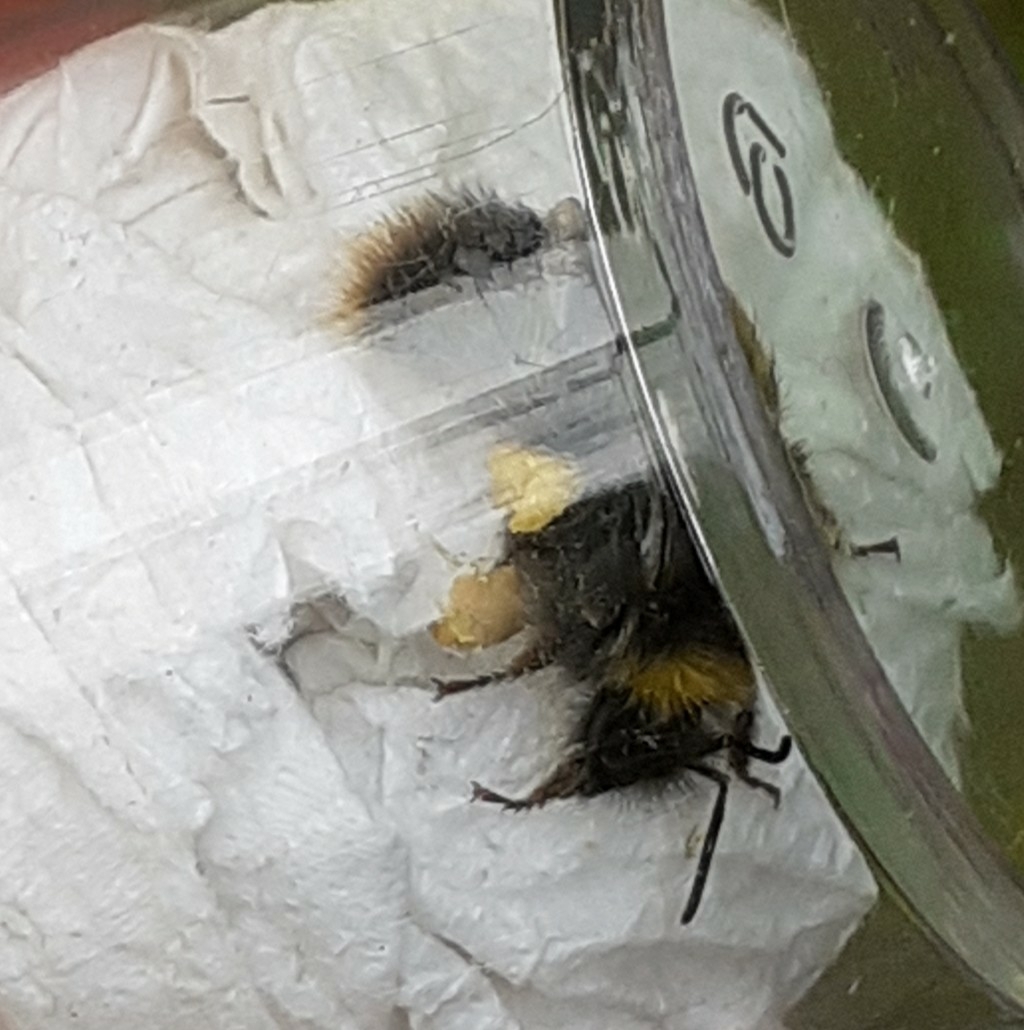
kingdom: Animalia
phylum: Arthropoda
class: Insecta
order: Hymenoptera
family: Apidae
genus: Bombus
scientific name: Bombus pratorum
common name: Early humble-bee
